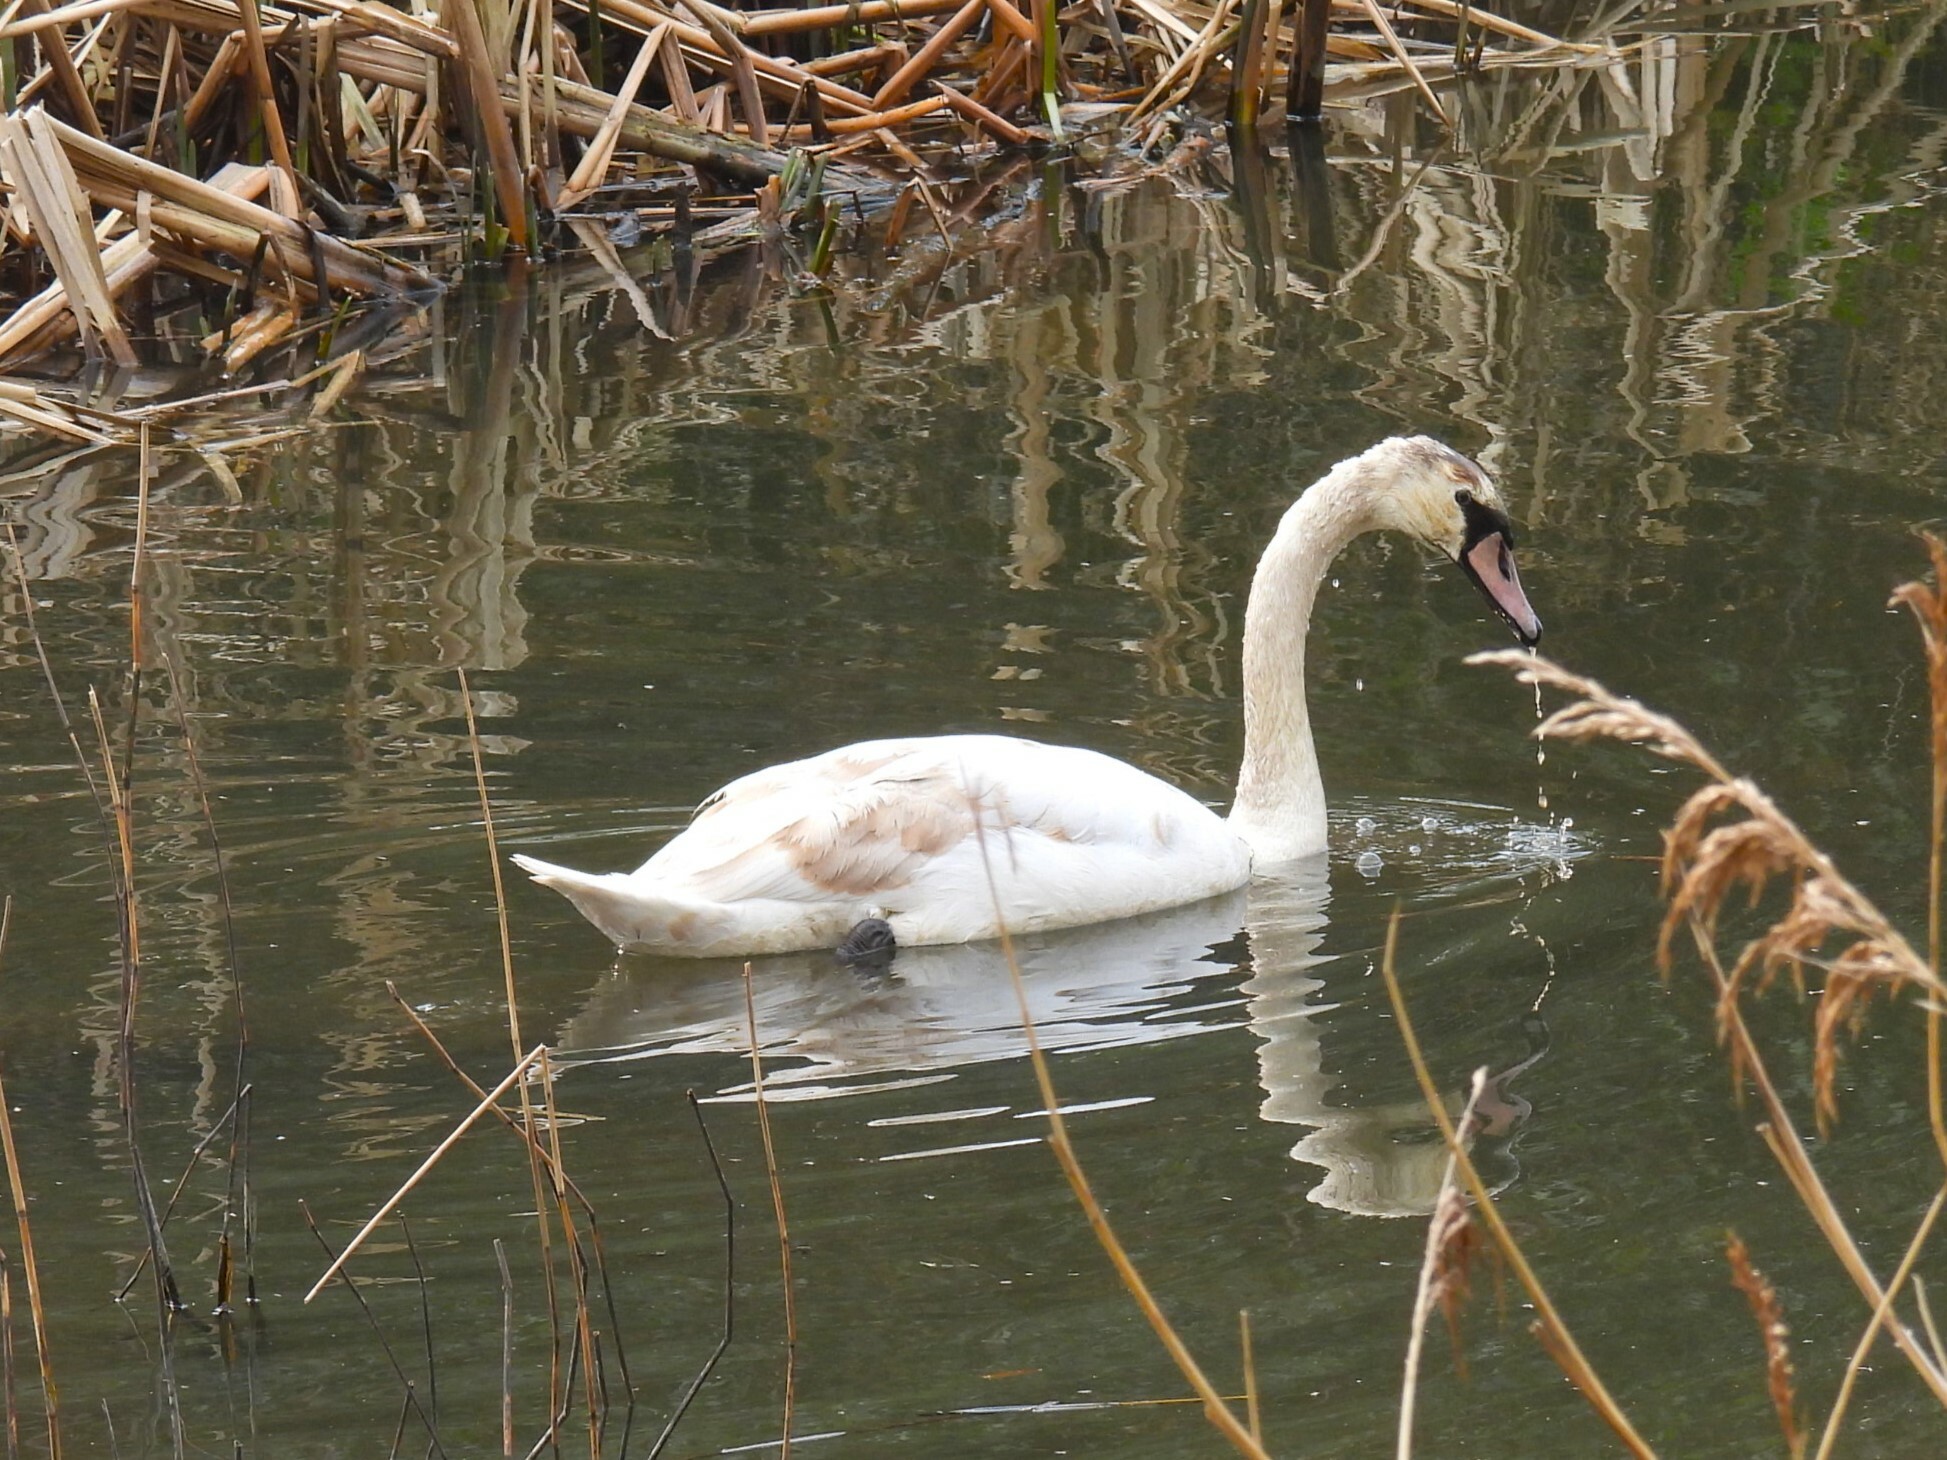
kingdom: Animalia
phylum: Chordata
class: Aves
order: Anseriformes
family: Anatidae
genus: Cygnus
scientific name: Cygnus olor
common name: Mute swan
